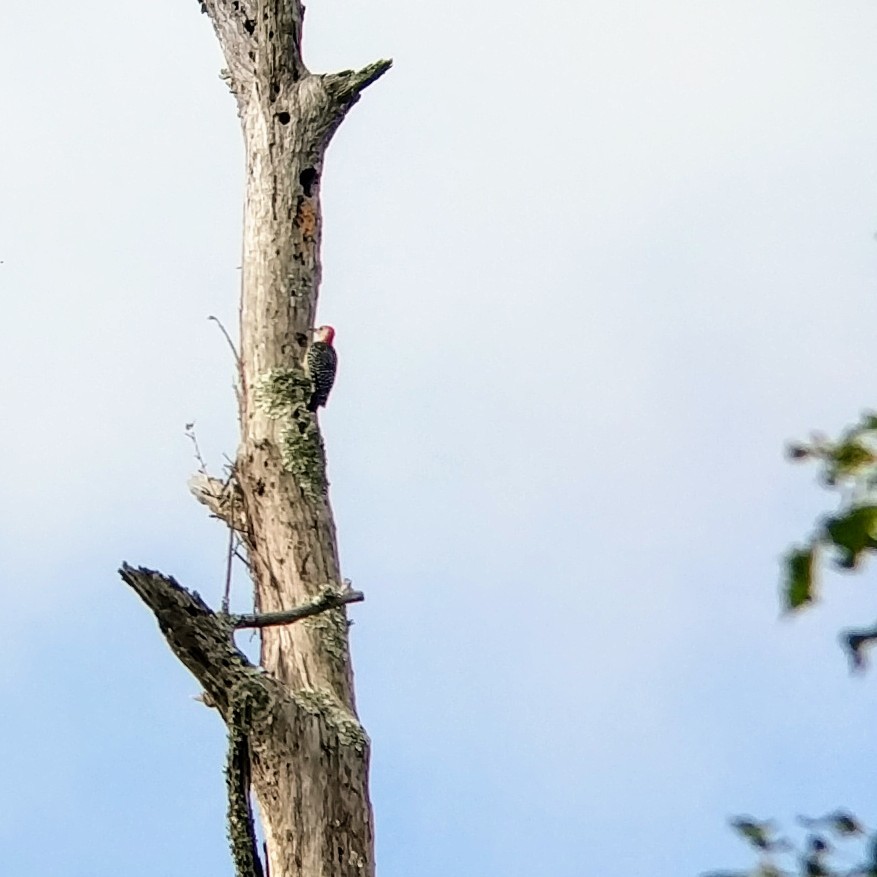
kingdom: Animalia
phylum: Chordata
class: Aves
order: Piciformes
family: Picidae
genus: Melanerpes
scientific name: Melanerpes carolinus
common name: Red-bellied woodpecker
